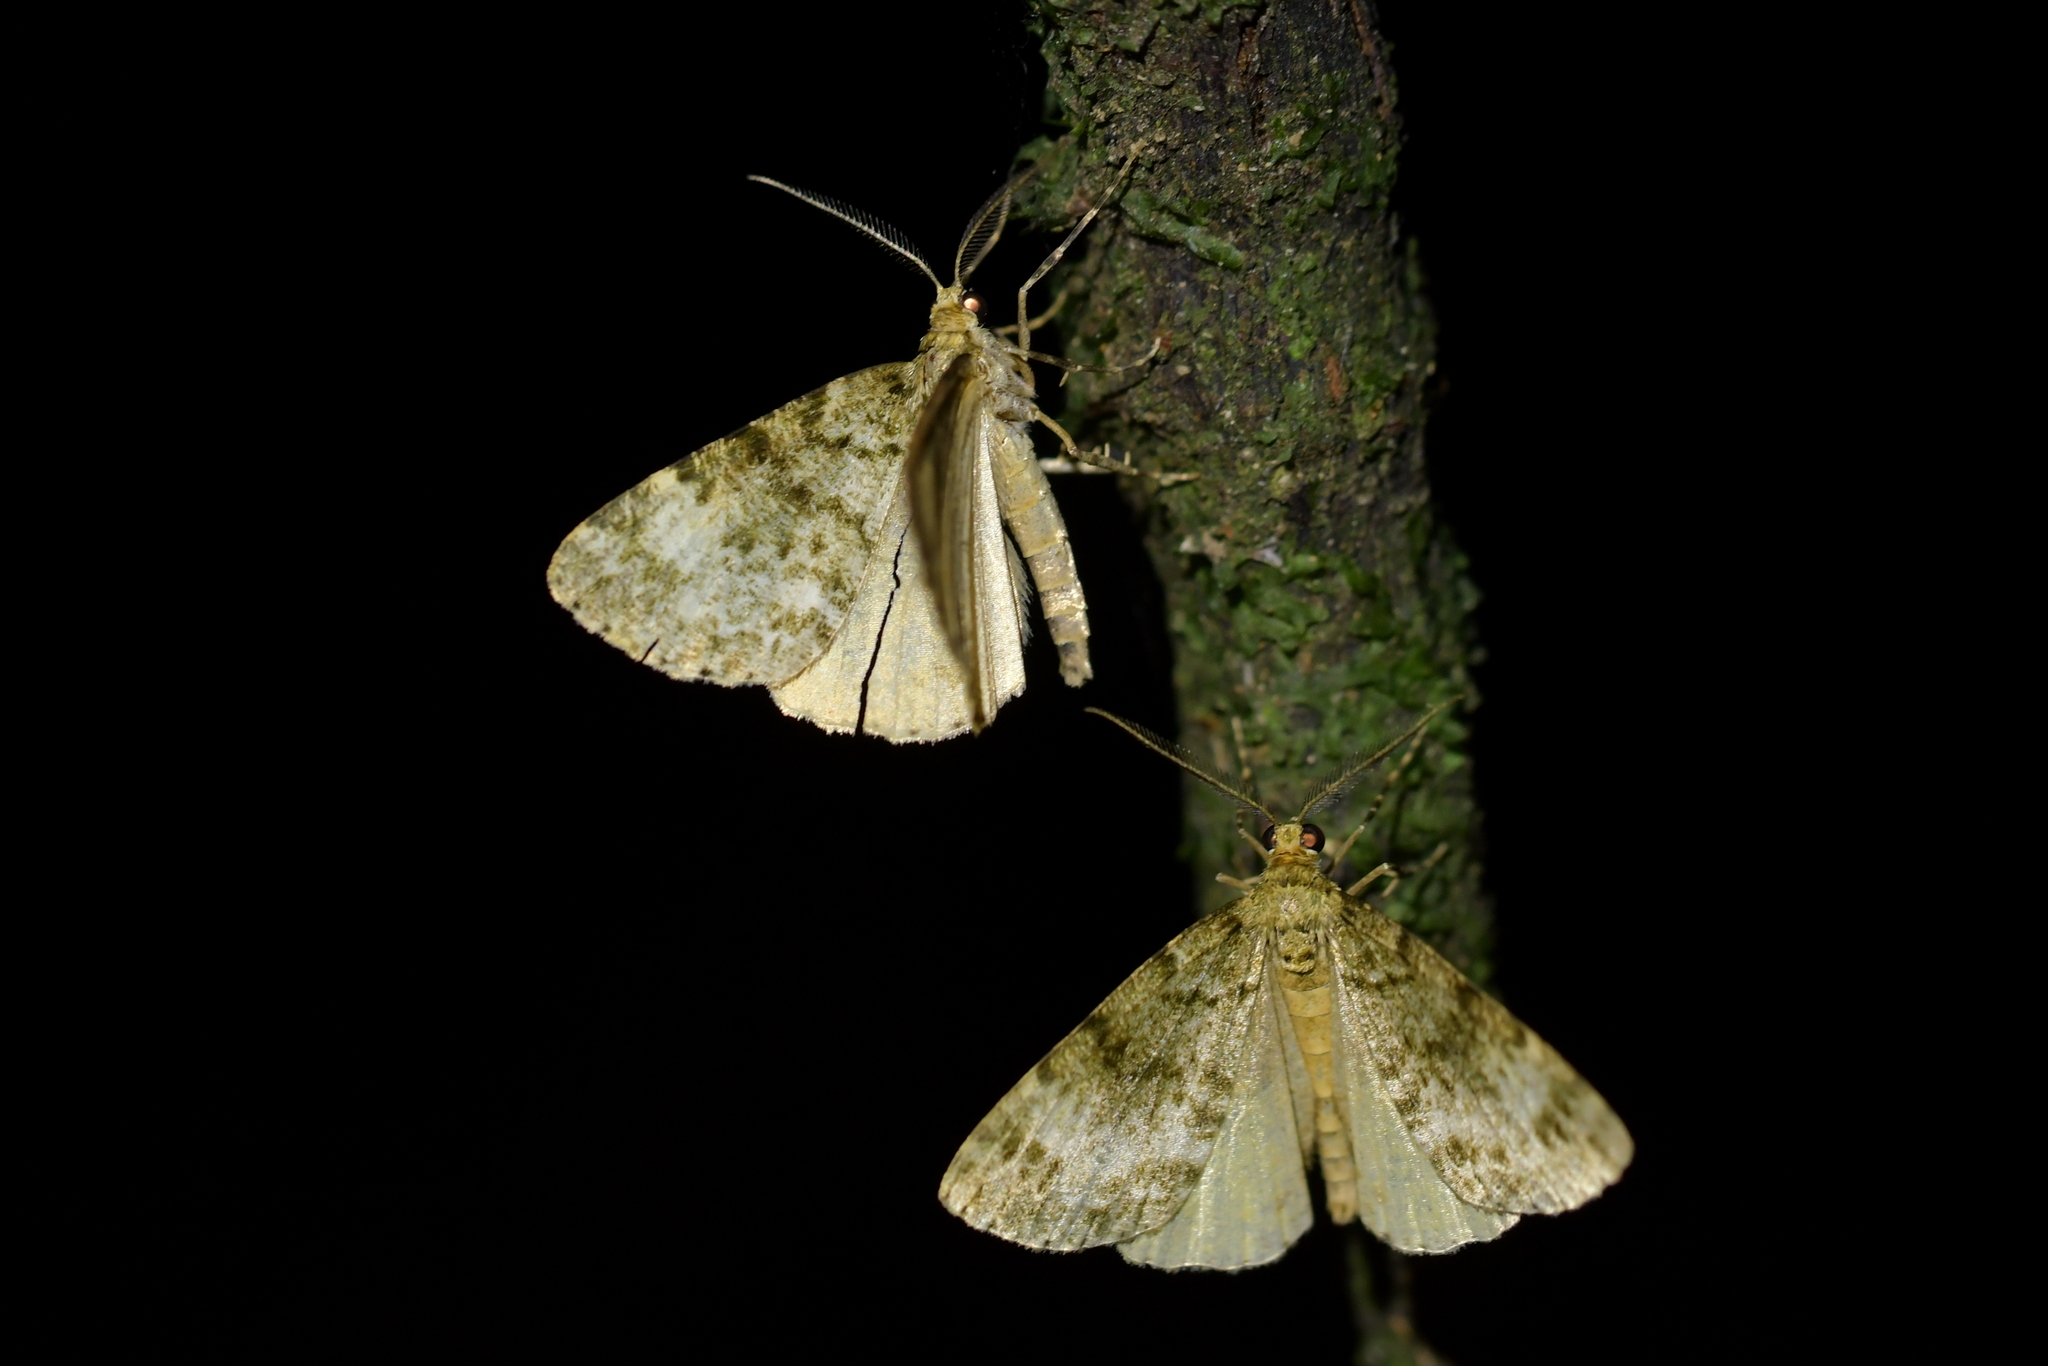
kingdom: Animalia
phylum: Arthropoda
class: Insecta
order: Lepidoptera
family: Geometridae
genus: Pseudocoremia
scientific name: Pseudocoremia indistincta
